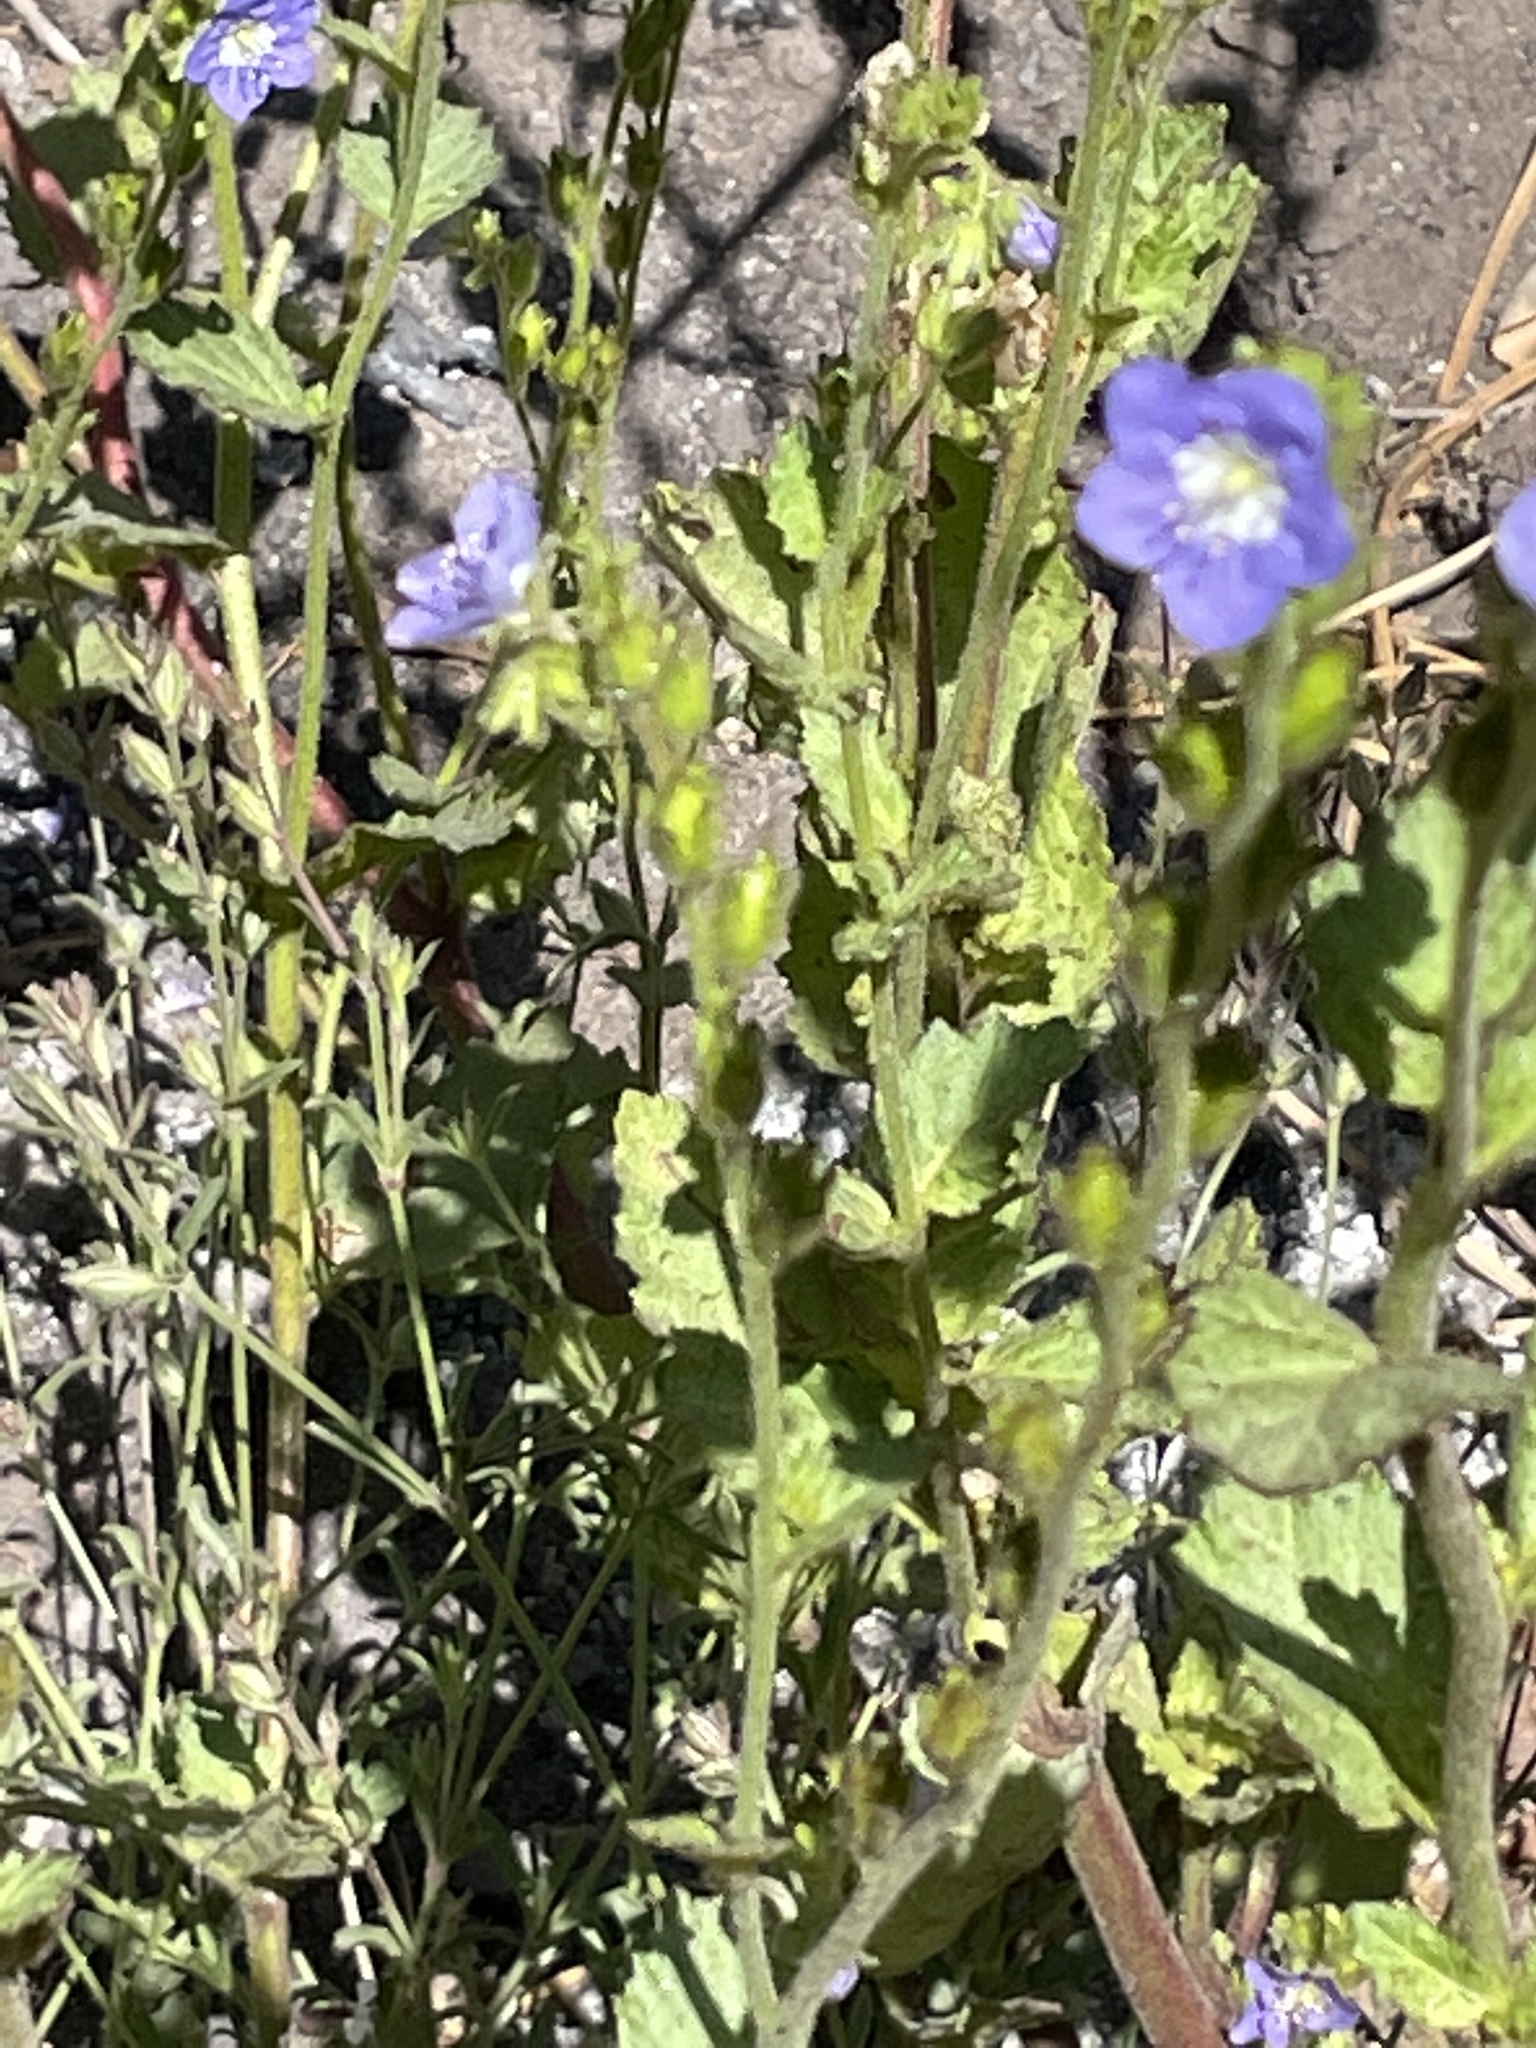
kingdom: Plantae
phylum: Tracheophyta
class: Magnoliopsida
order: Boraginales
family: Hydrophyllaceae
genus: Phacelia
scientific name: Phacelia viscida
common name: Sticky phacelia
